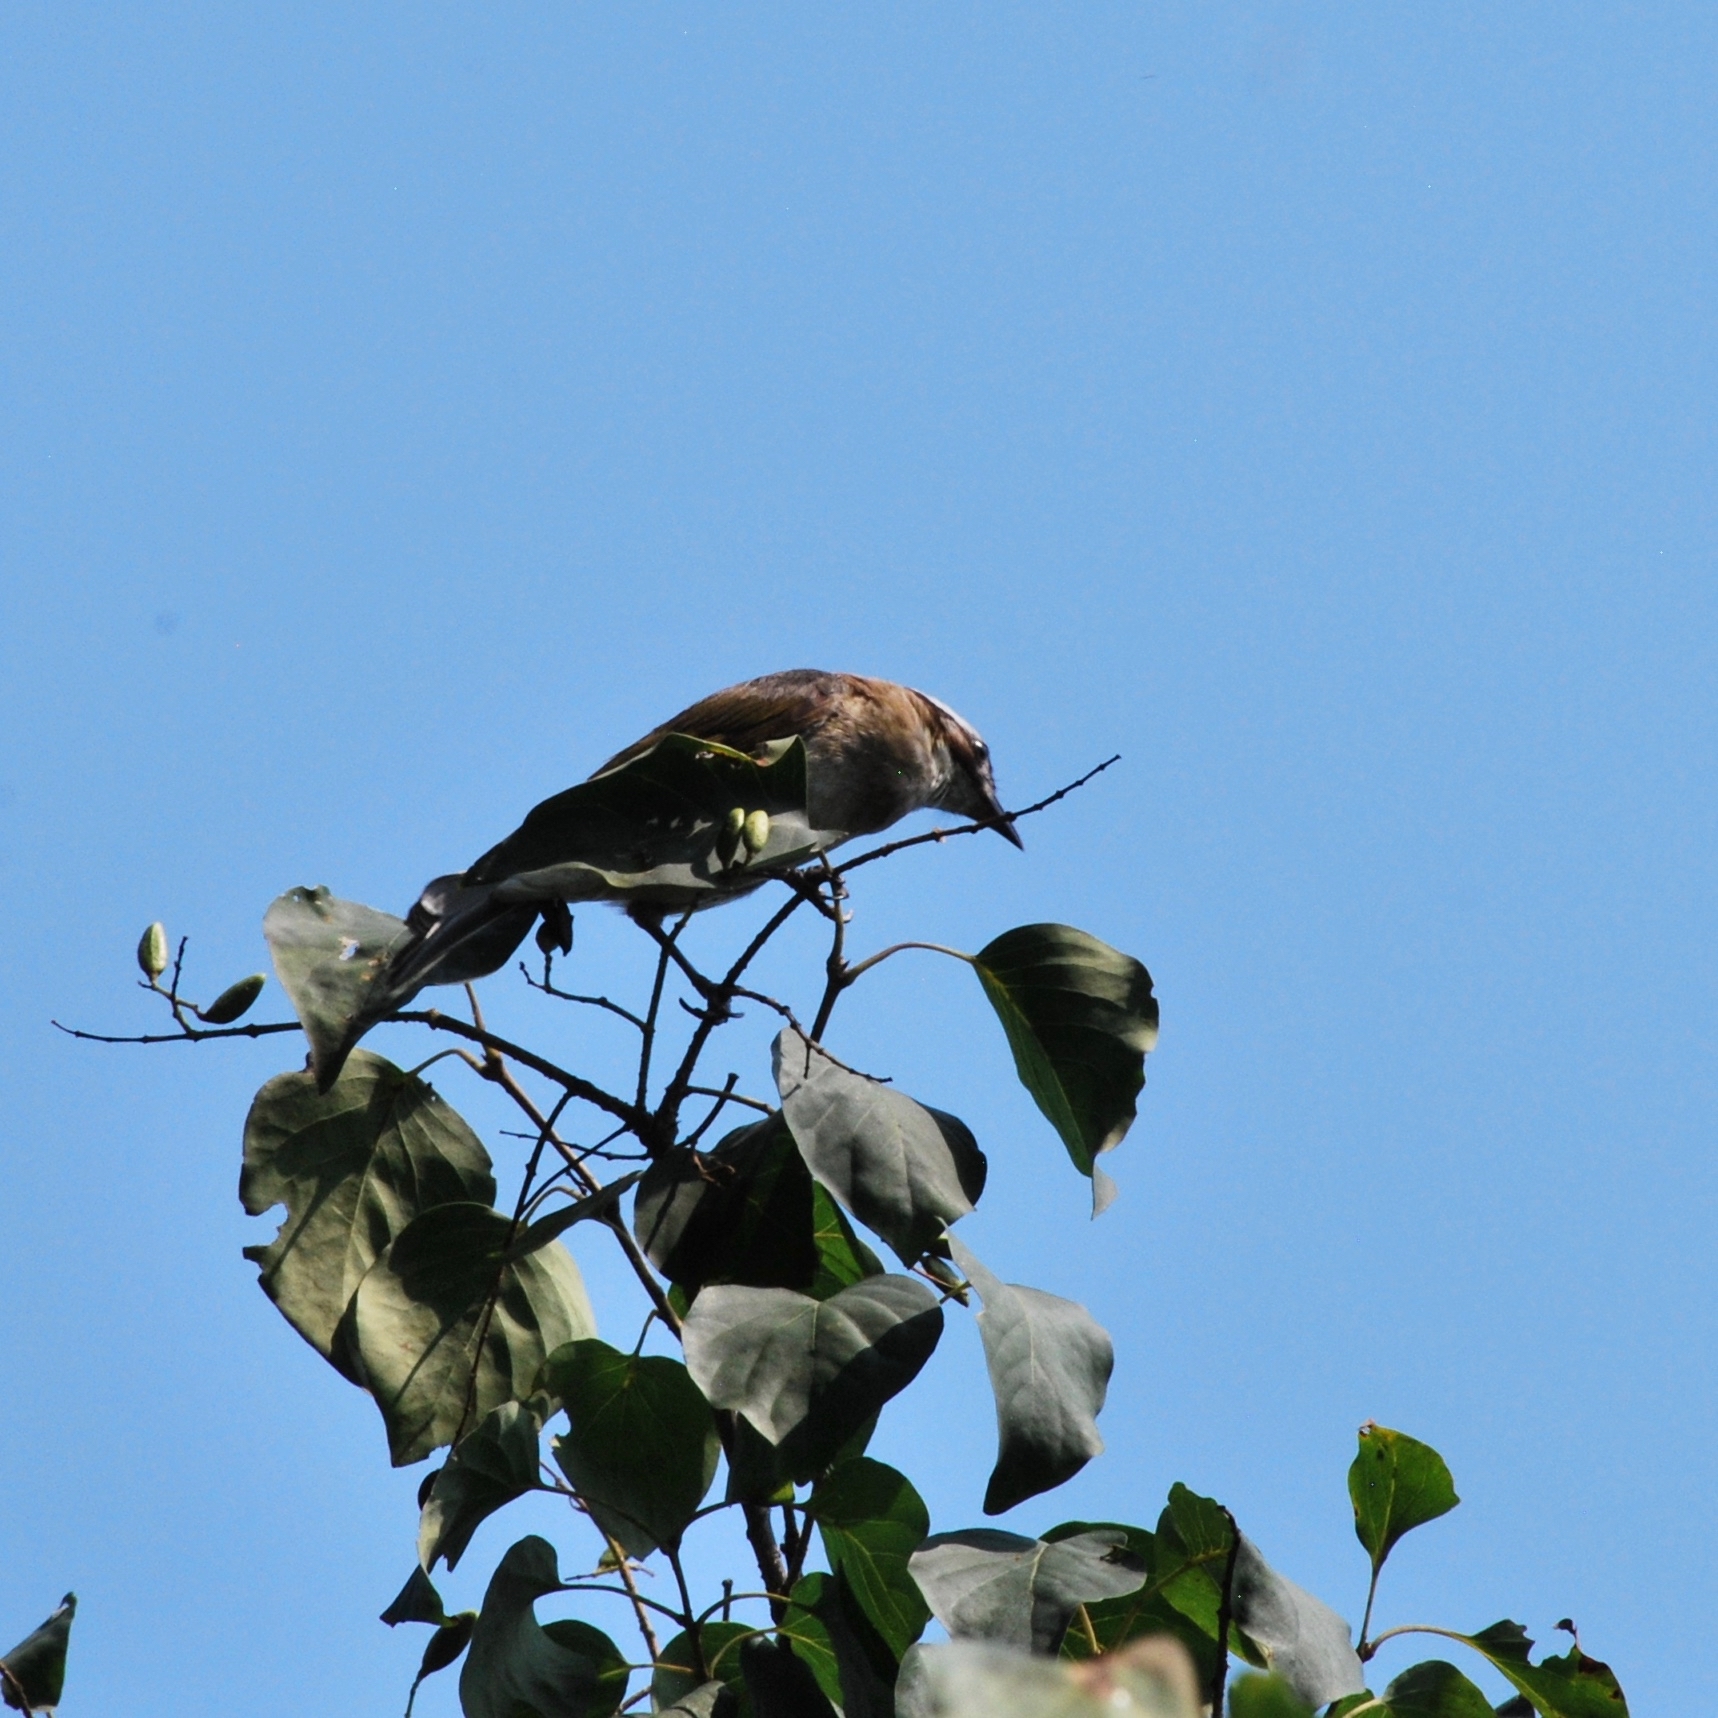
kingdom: Animalia
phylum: Chordata
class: Aves
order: Passeriformes
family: Pycnonotidae
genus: Pycnonotus
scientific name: Pycnonotus sinensis
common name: Light-vented bulbul
